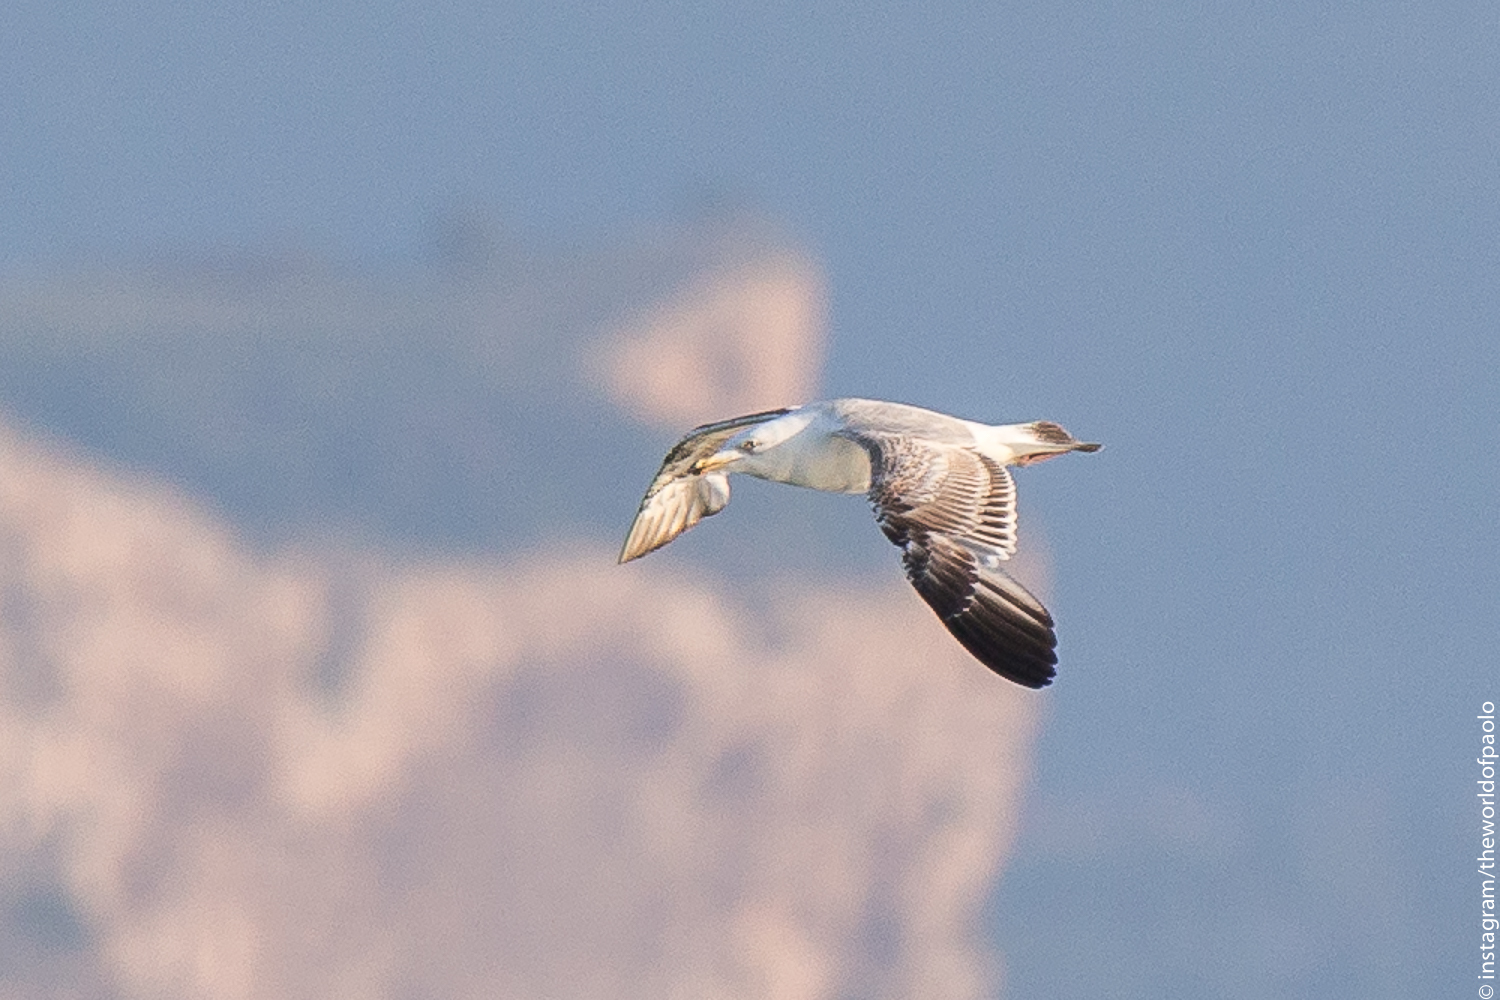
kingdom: Animalia
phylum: Chordata
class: Aves
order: Charadriiformes
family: Laridae
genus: Larus
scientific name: Larus michahellis
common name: Yellow-legged gull
